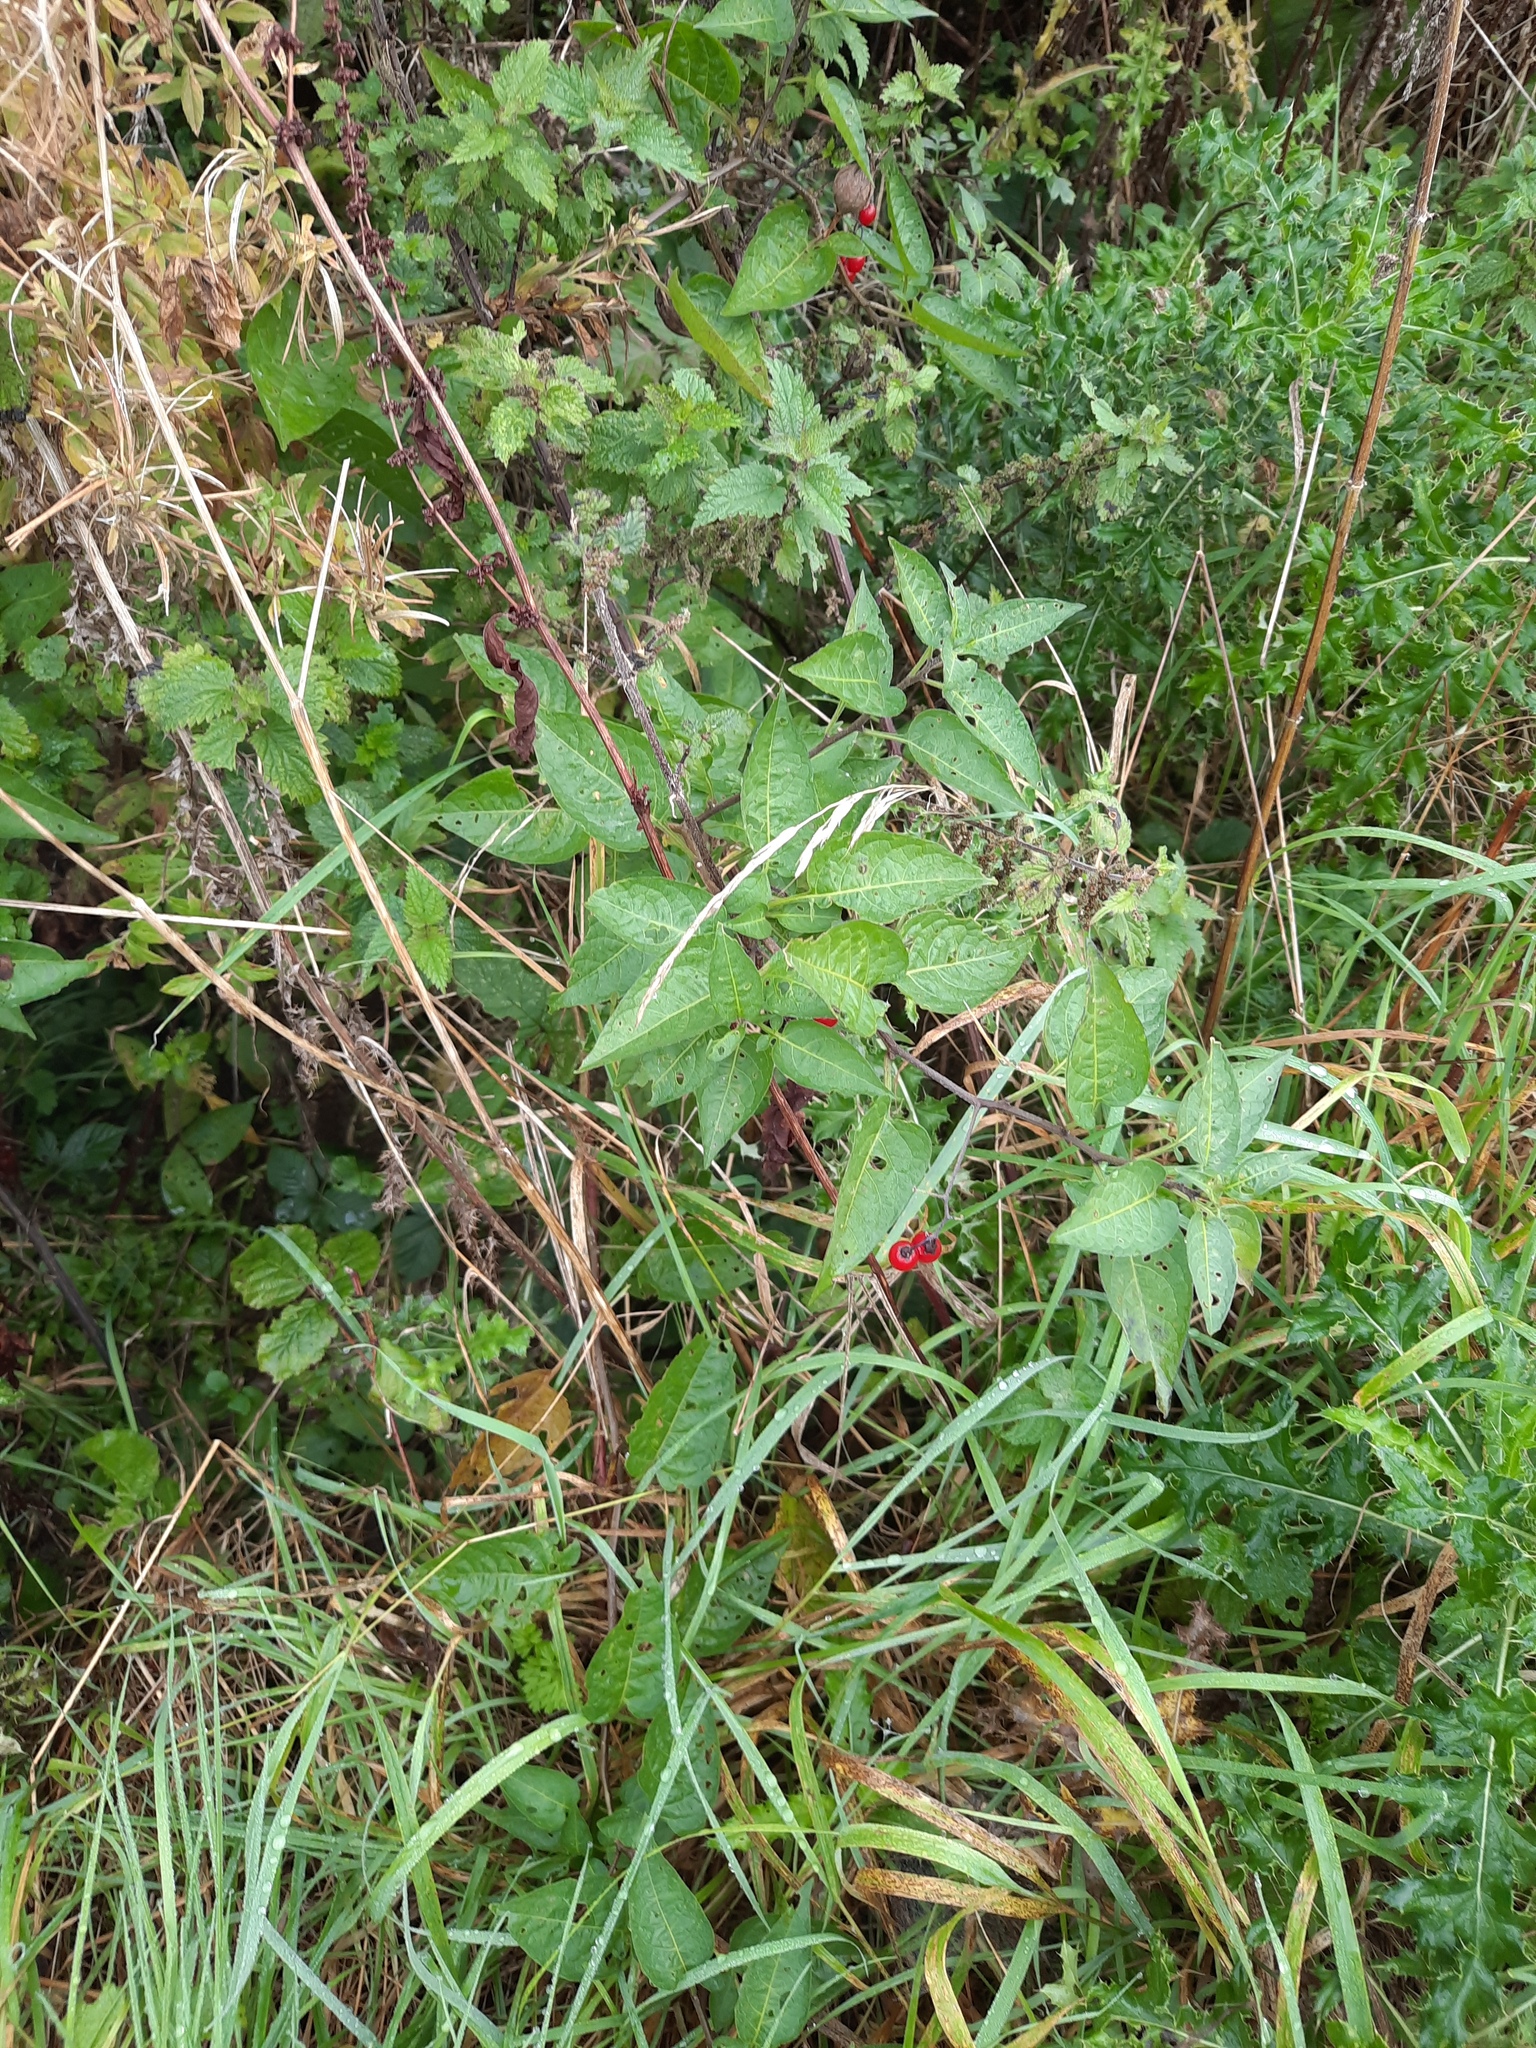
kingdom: Plantae
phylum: Tracheophyta
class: Magnoliopsida
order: Solanales
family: Solanaceae
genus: Solanum
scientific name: Solanum dulcamara
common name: Climbing nightshade
